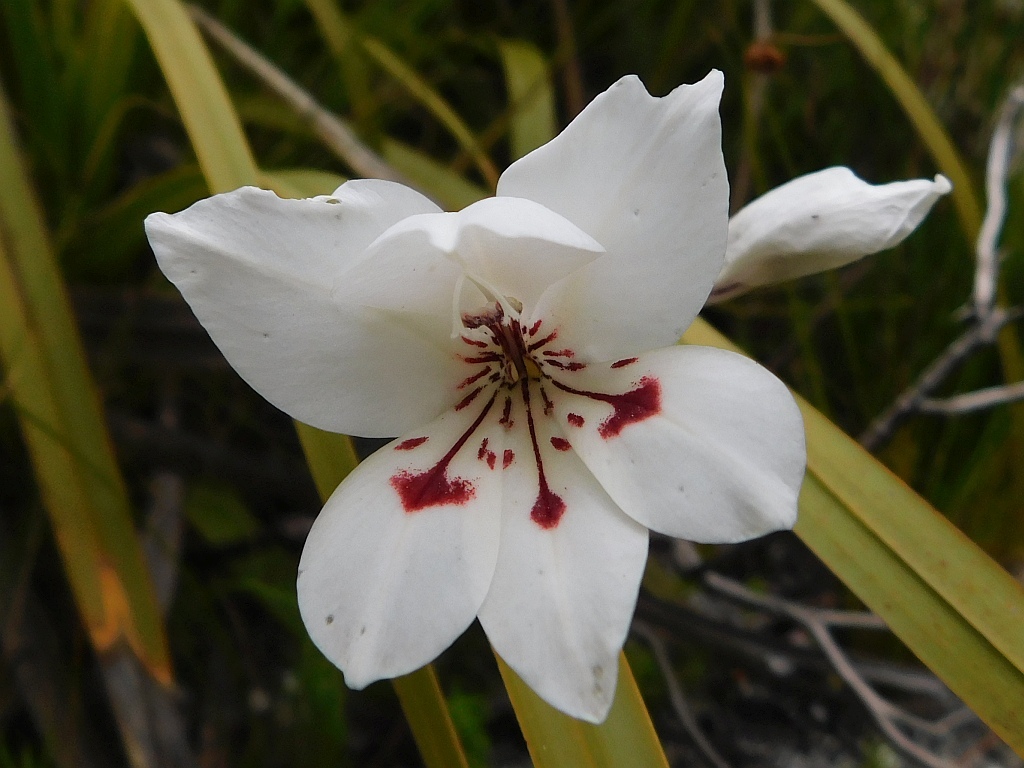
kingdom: Plantae
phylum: Tracheophyta
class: Liliopsida
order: Asparagales
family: Iridaceae
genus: Gladiolus
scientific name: Gladiolus debilis
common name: Painted-lady
